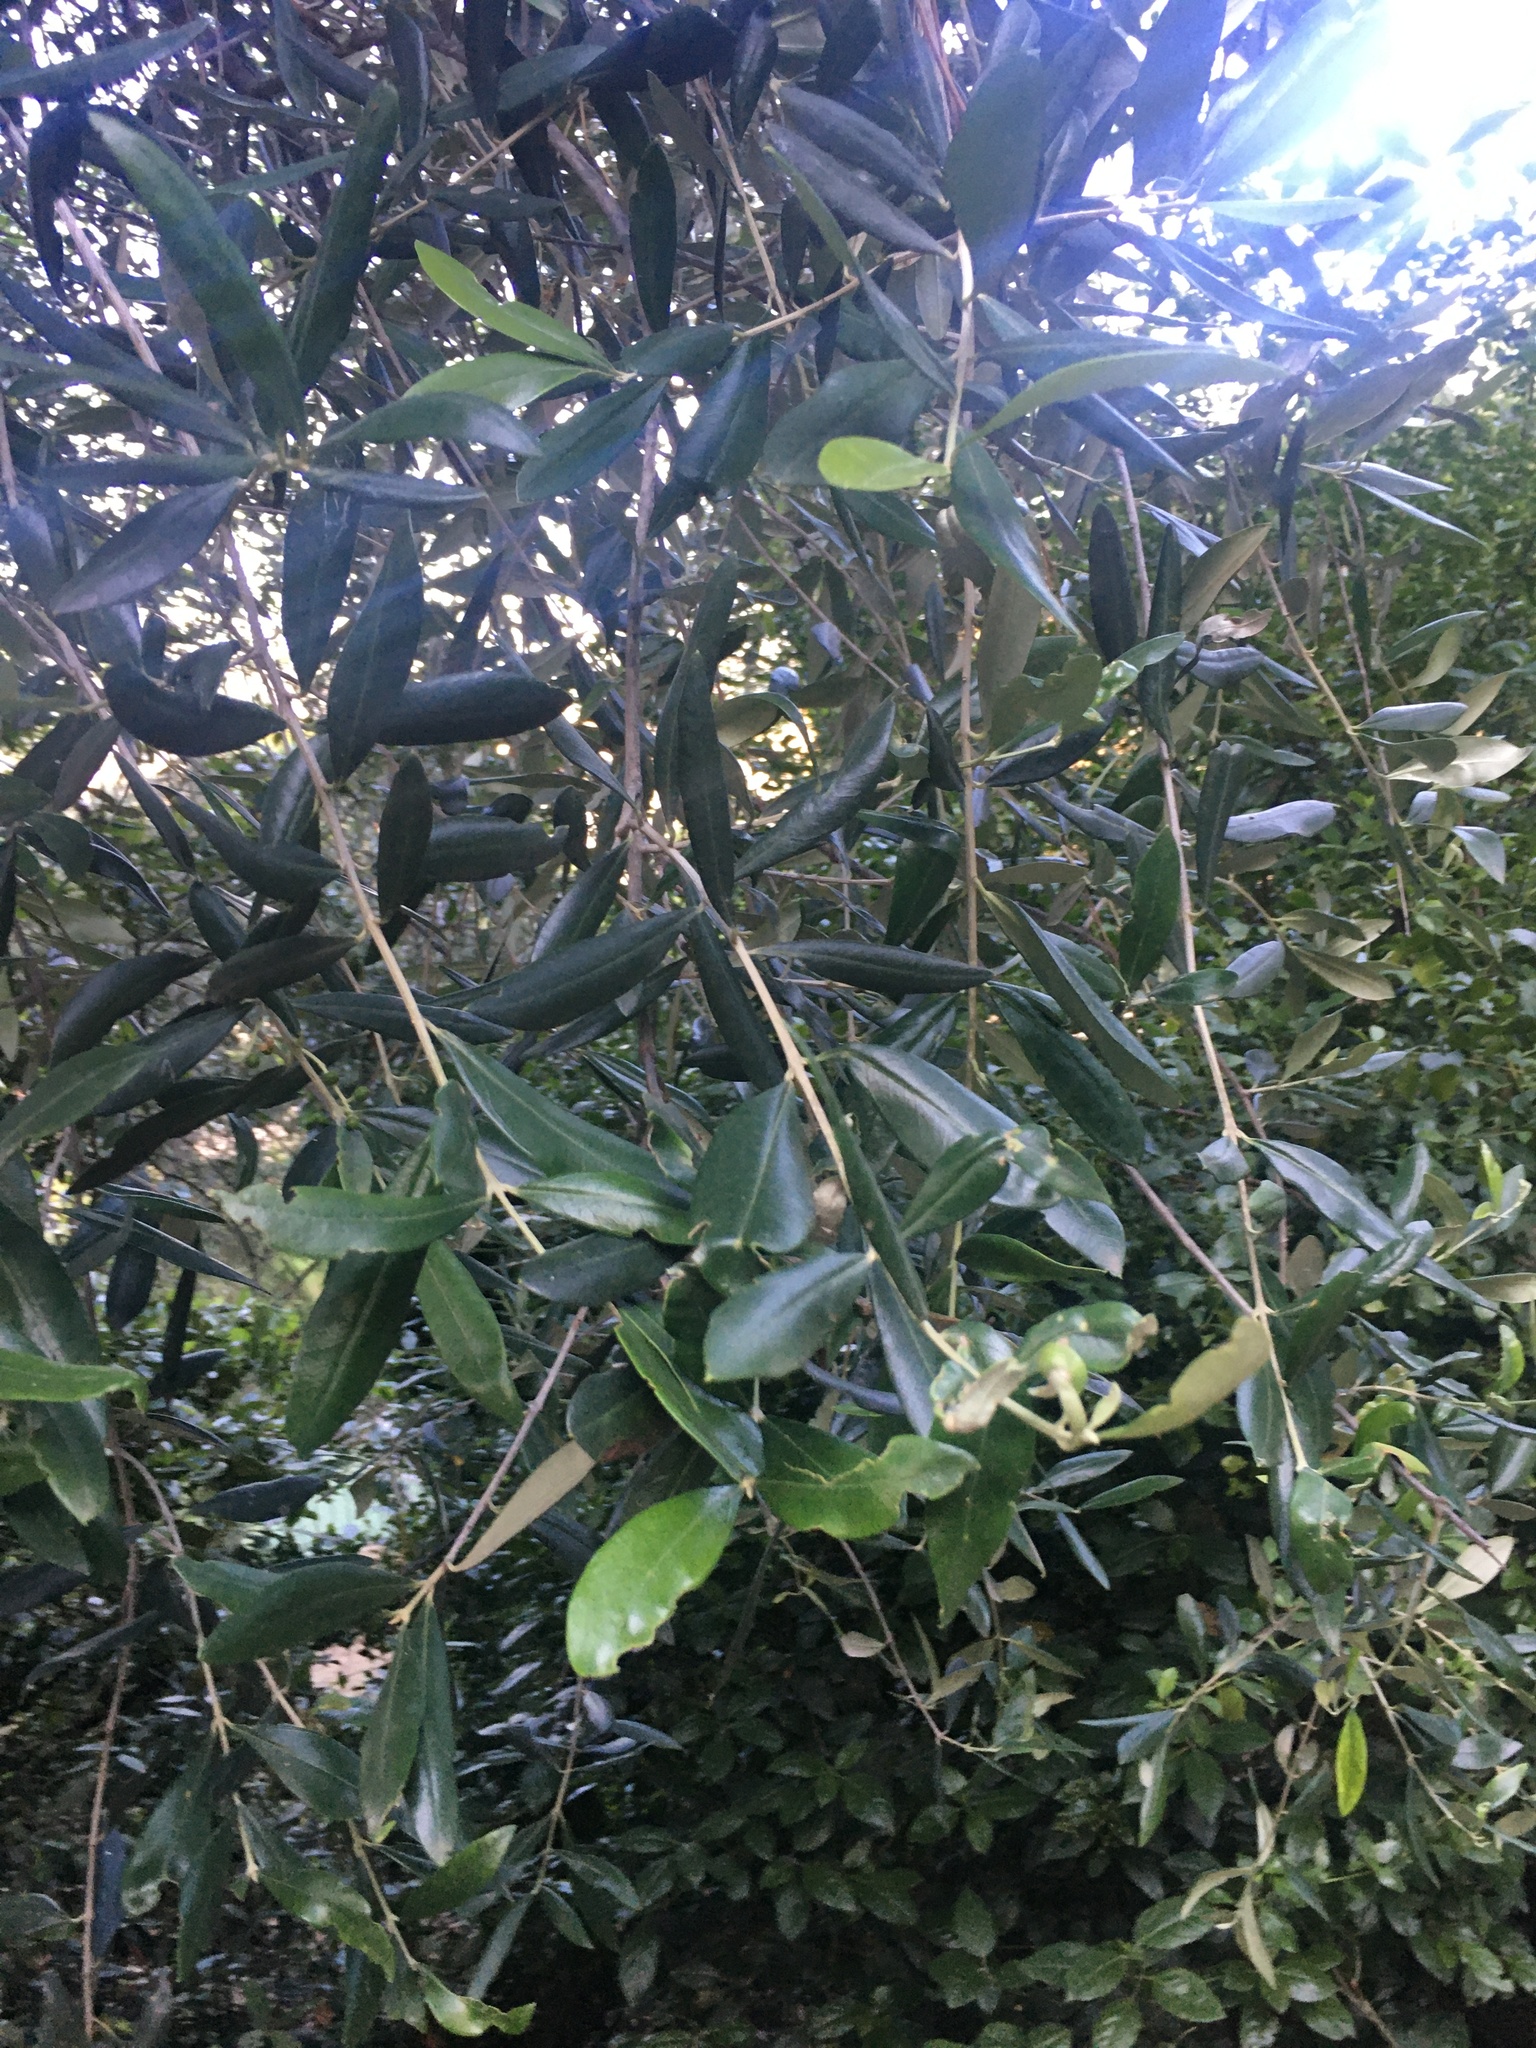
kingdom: Plantae
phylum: Tracheophyta
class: Magnoliopsida
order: Lamiales
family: Oleaceae
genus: Olea
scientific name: Olea europaea
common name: Olive
